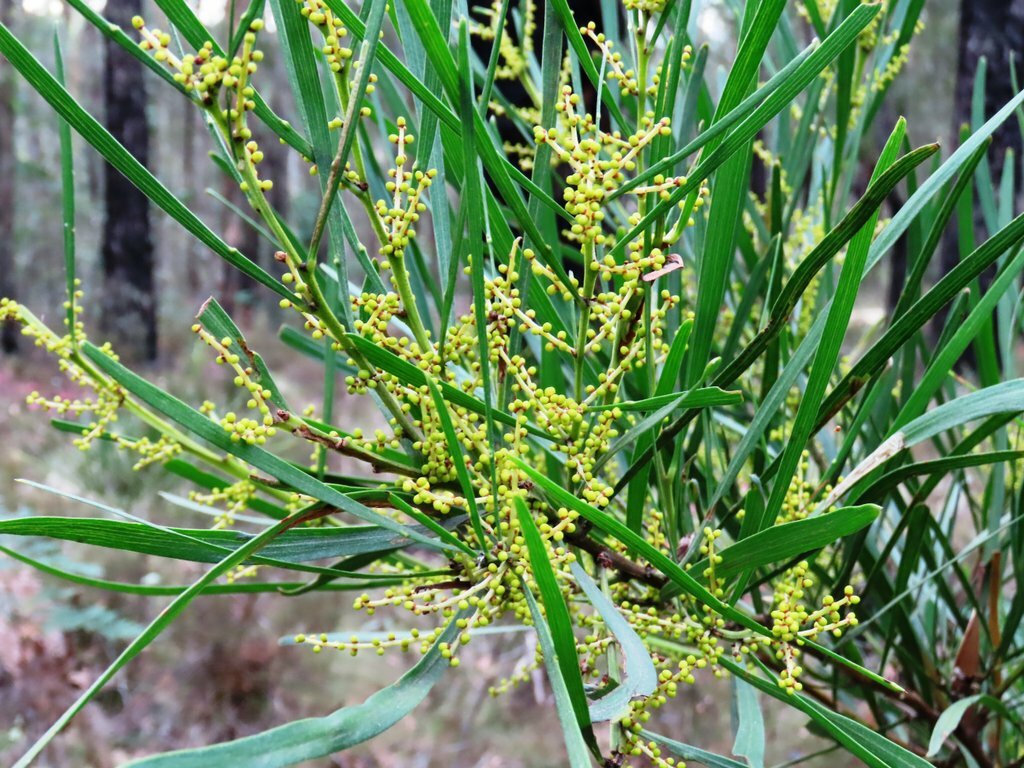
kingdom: Plantae
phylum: Tracheophyta
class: Magnoliopsida
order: Fabales
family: Fabaceae
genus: Acacia
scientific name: Acacia mucronata
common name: Variable sallow wattle
